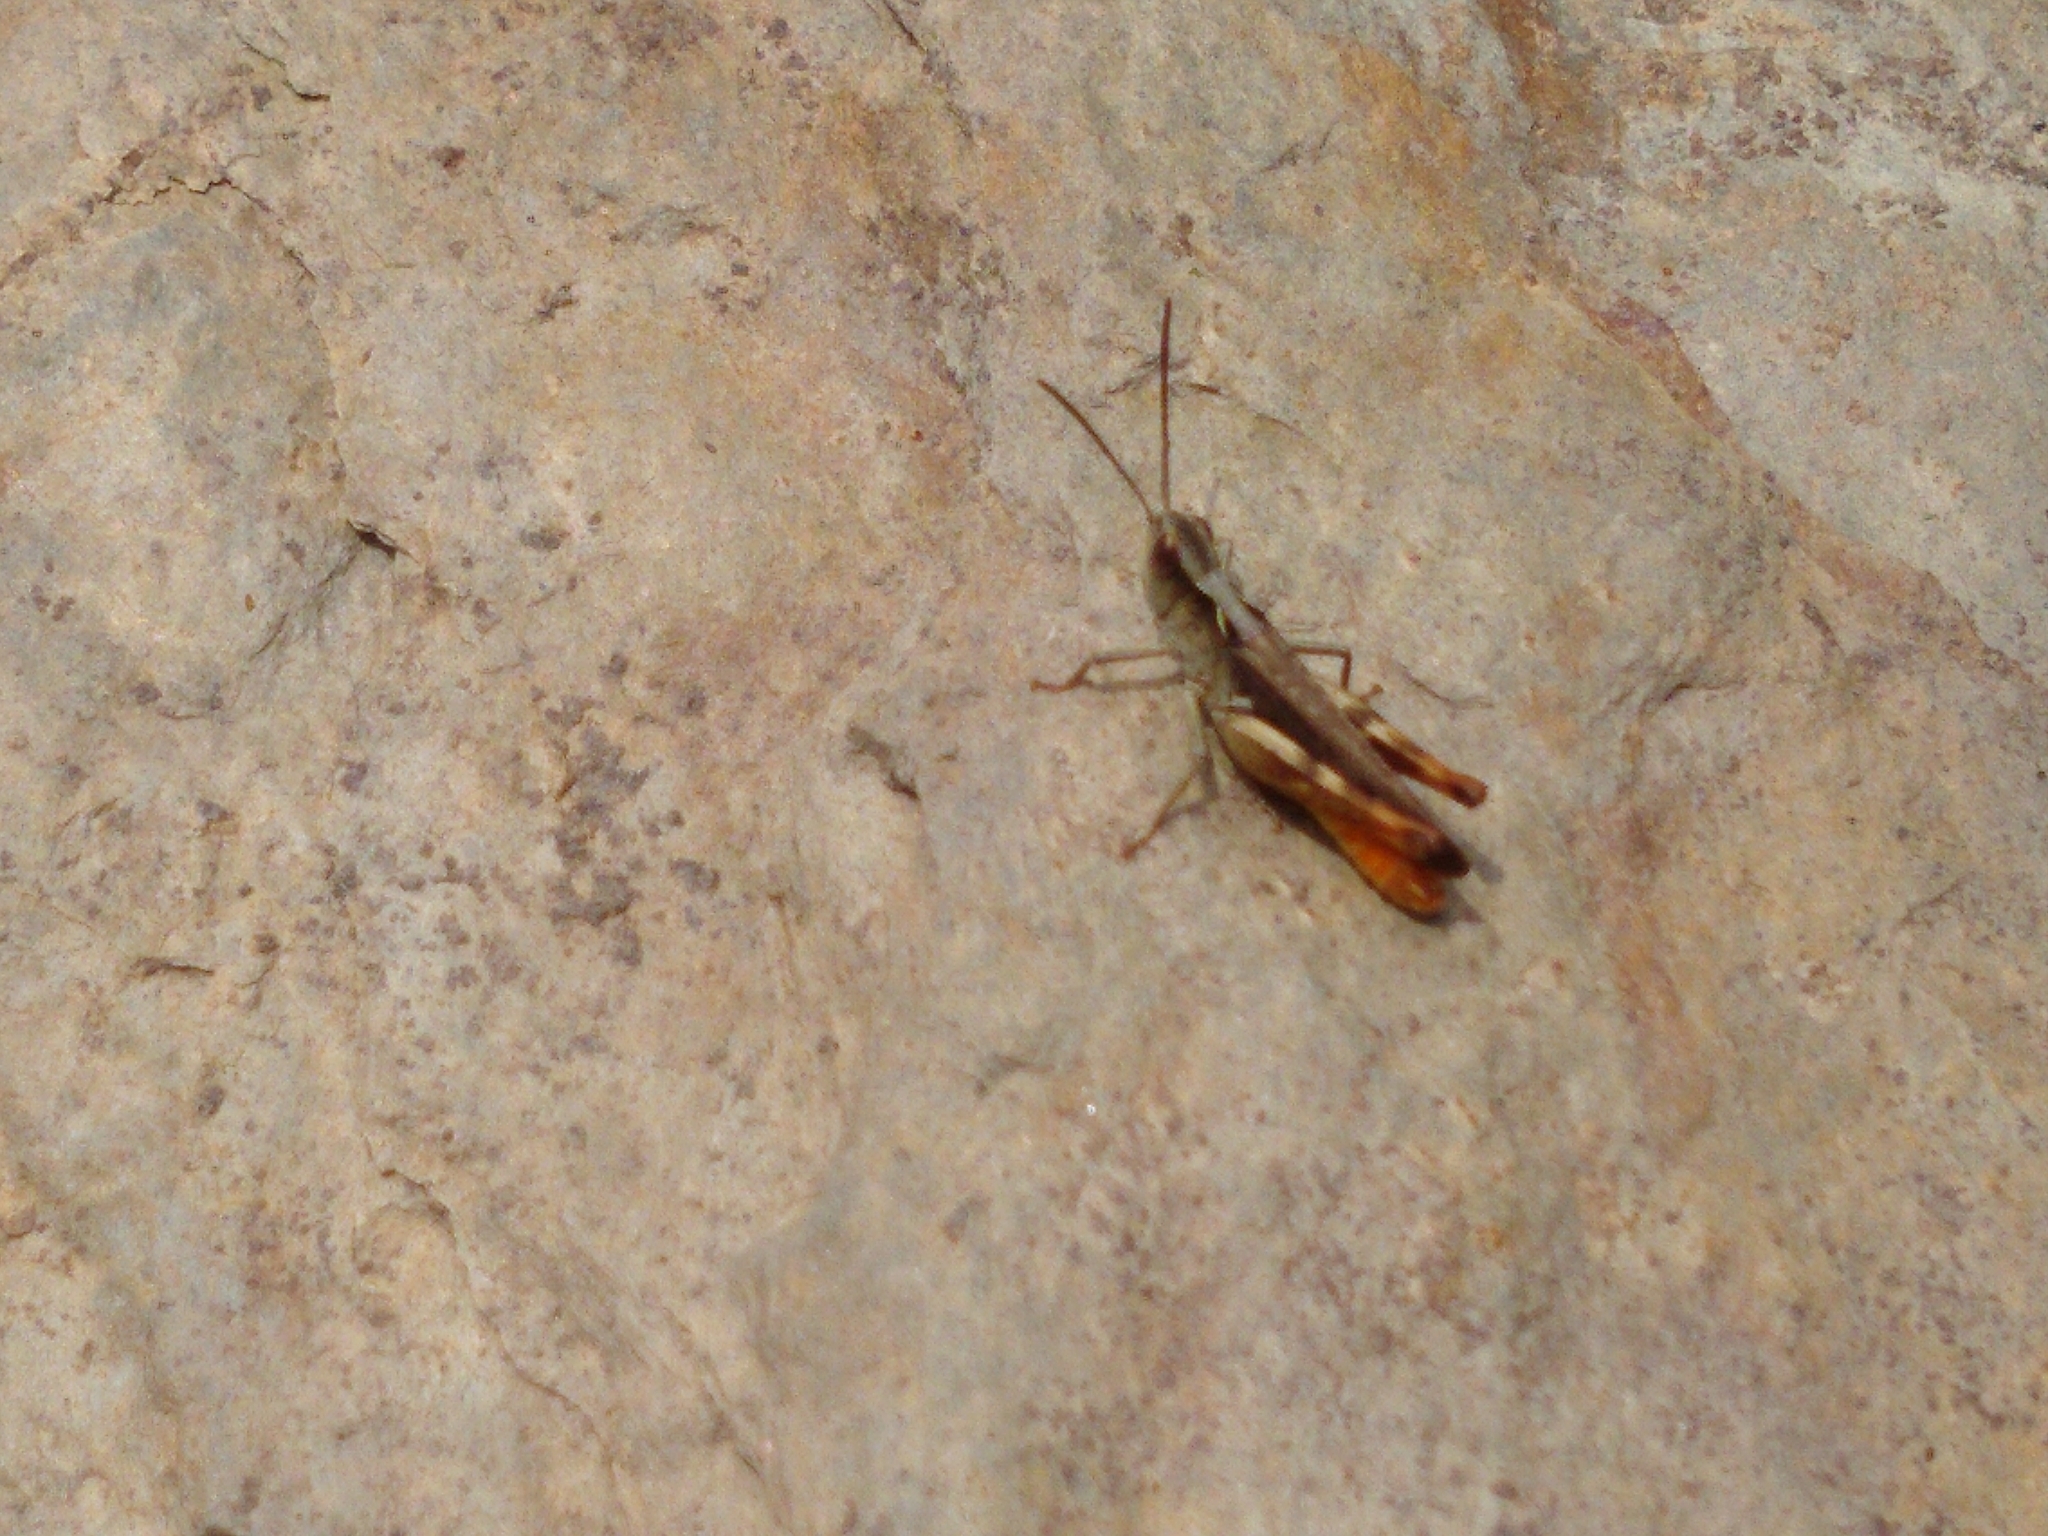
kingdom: Animalia
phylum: Arthropoda
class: Insecta
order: Orthoptera
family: Acrididae
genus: Chorthippus
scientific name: Chorthippus vagans
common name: Heath grasshopper
